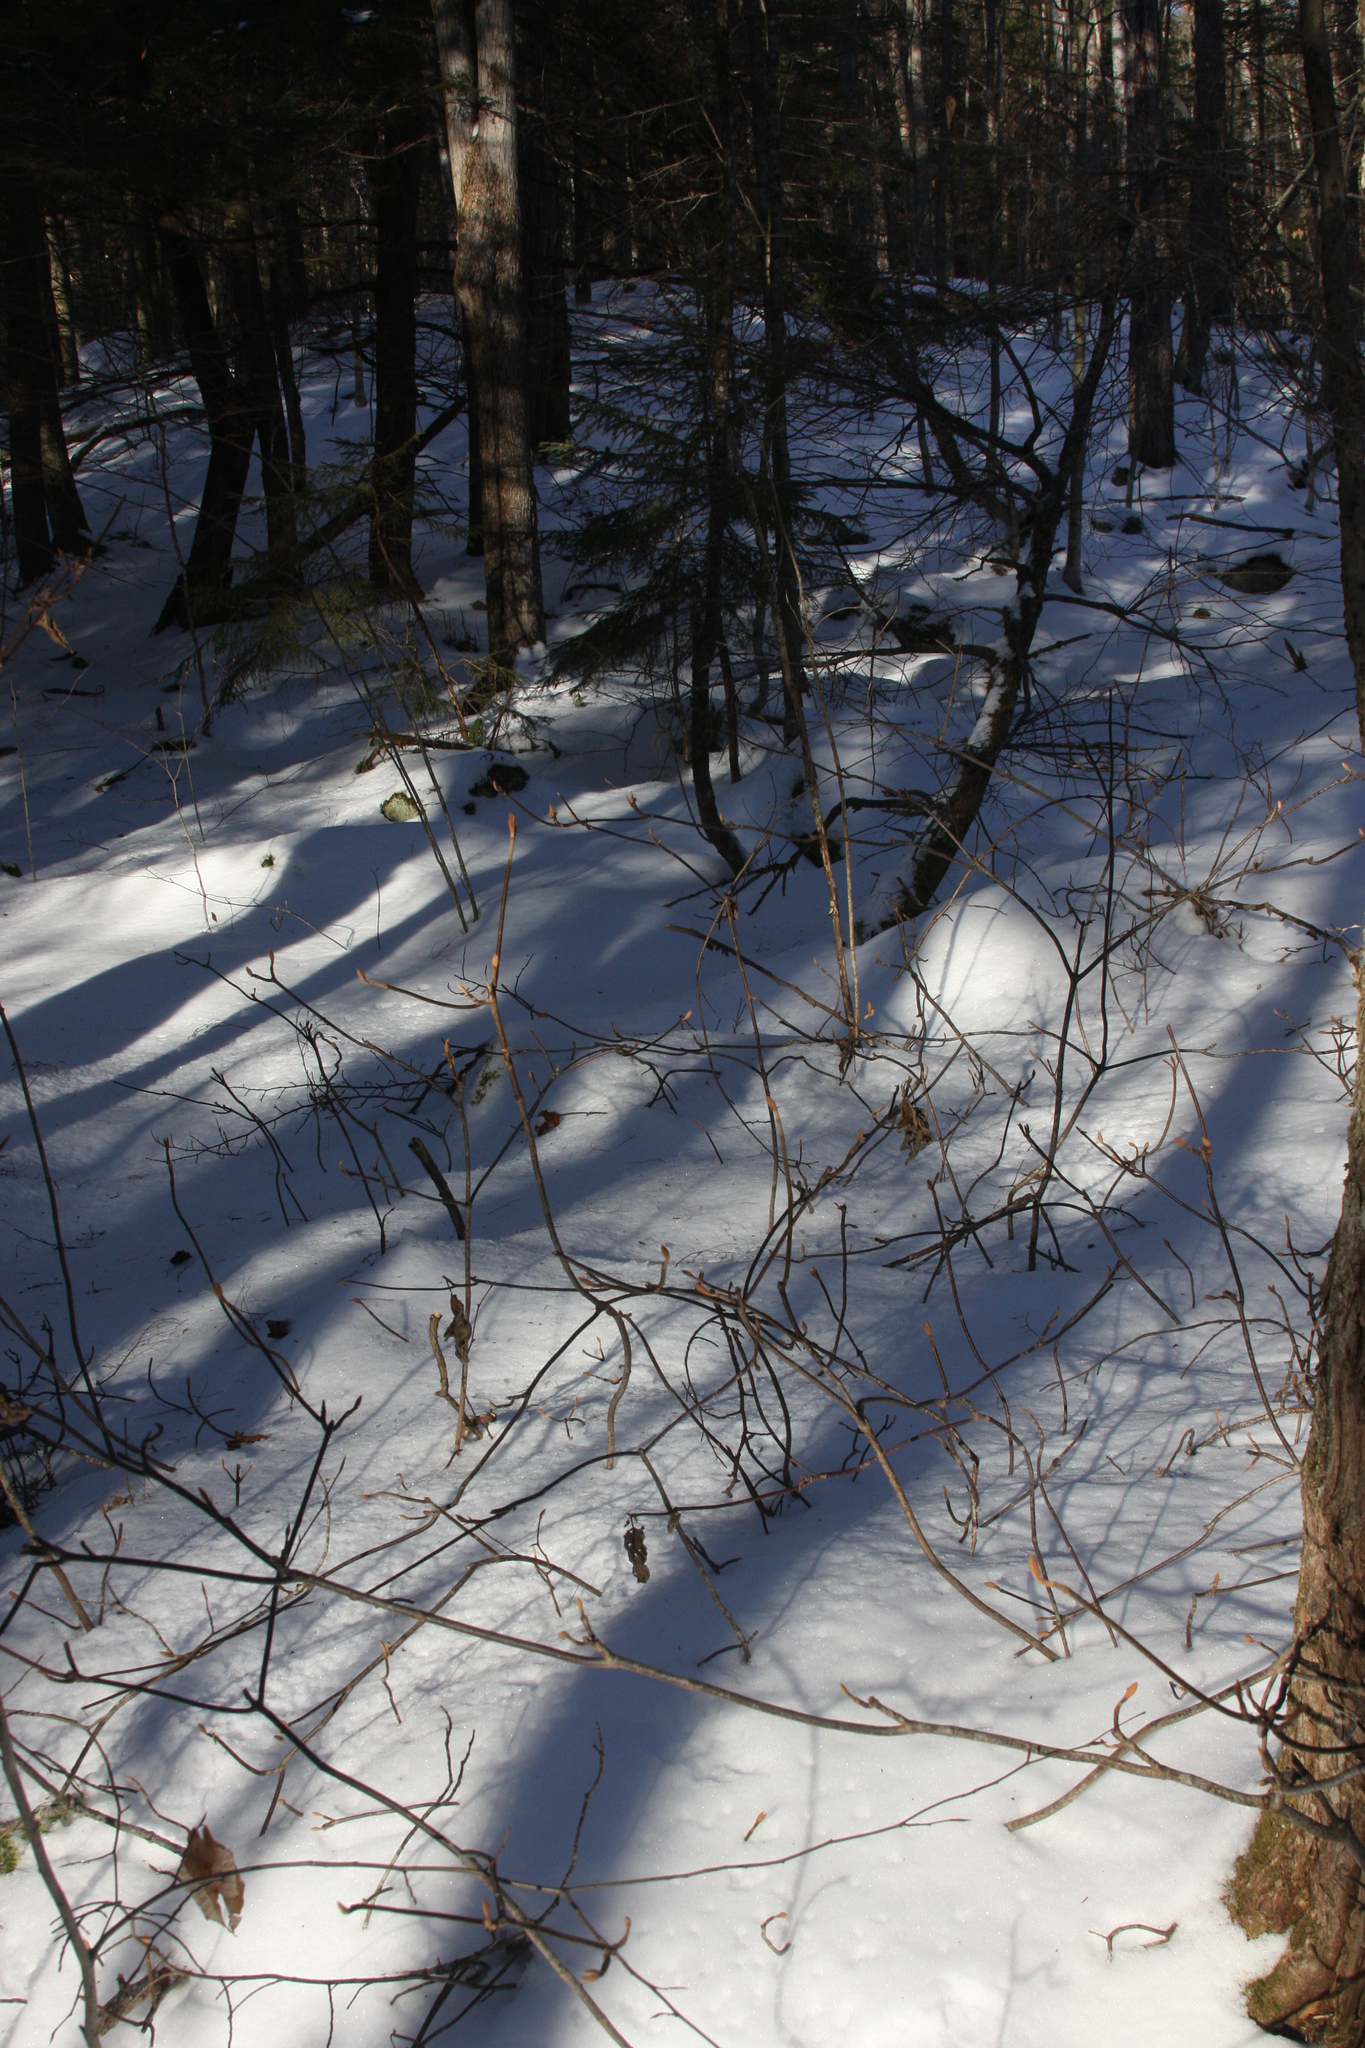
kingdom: Plantae
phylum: Tracheophyta
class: Magnoliopsida
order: Dipsacales
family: Viburnaceae
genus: Viburnum
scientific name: Viburnum lantanoides
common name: Hobblebush
